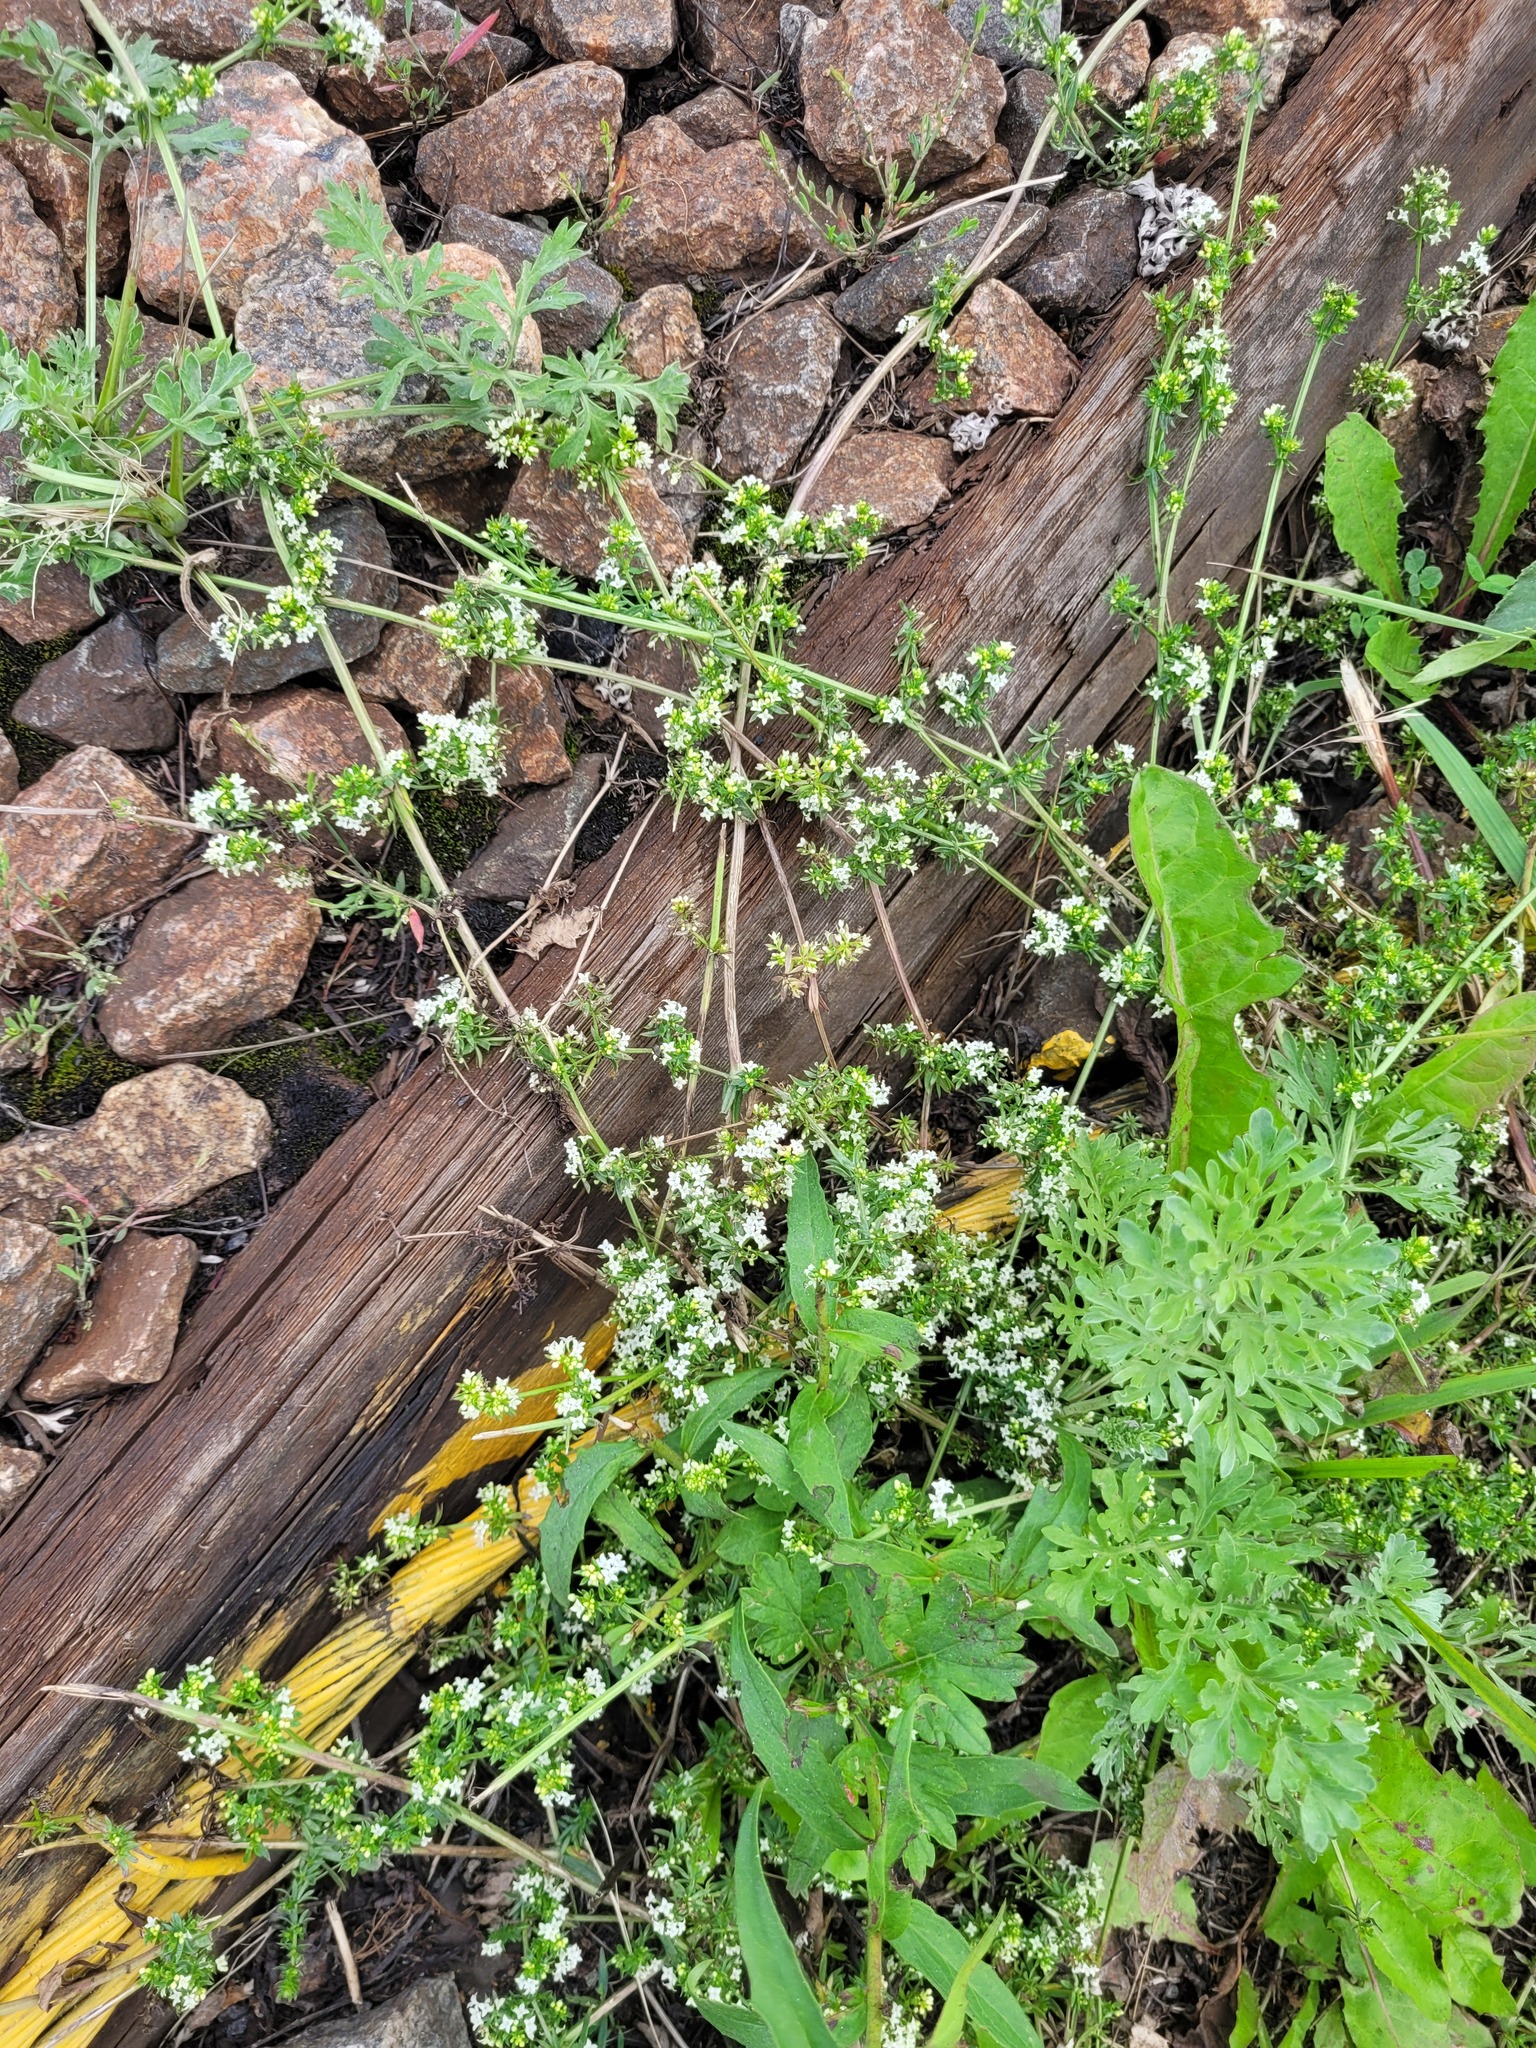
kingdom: Plantae
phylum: Tracheophyta
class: Magnoliopsida
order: Gentianales
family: Rubiaceae
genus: Galium
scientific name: Galium humifusum
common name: Spreading bedstraw
